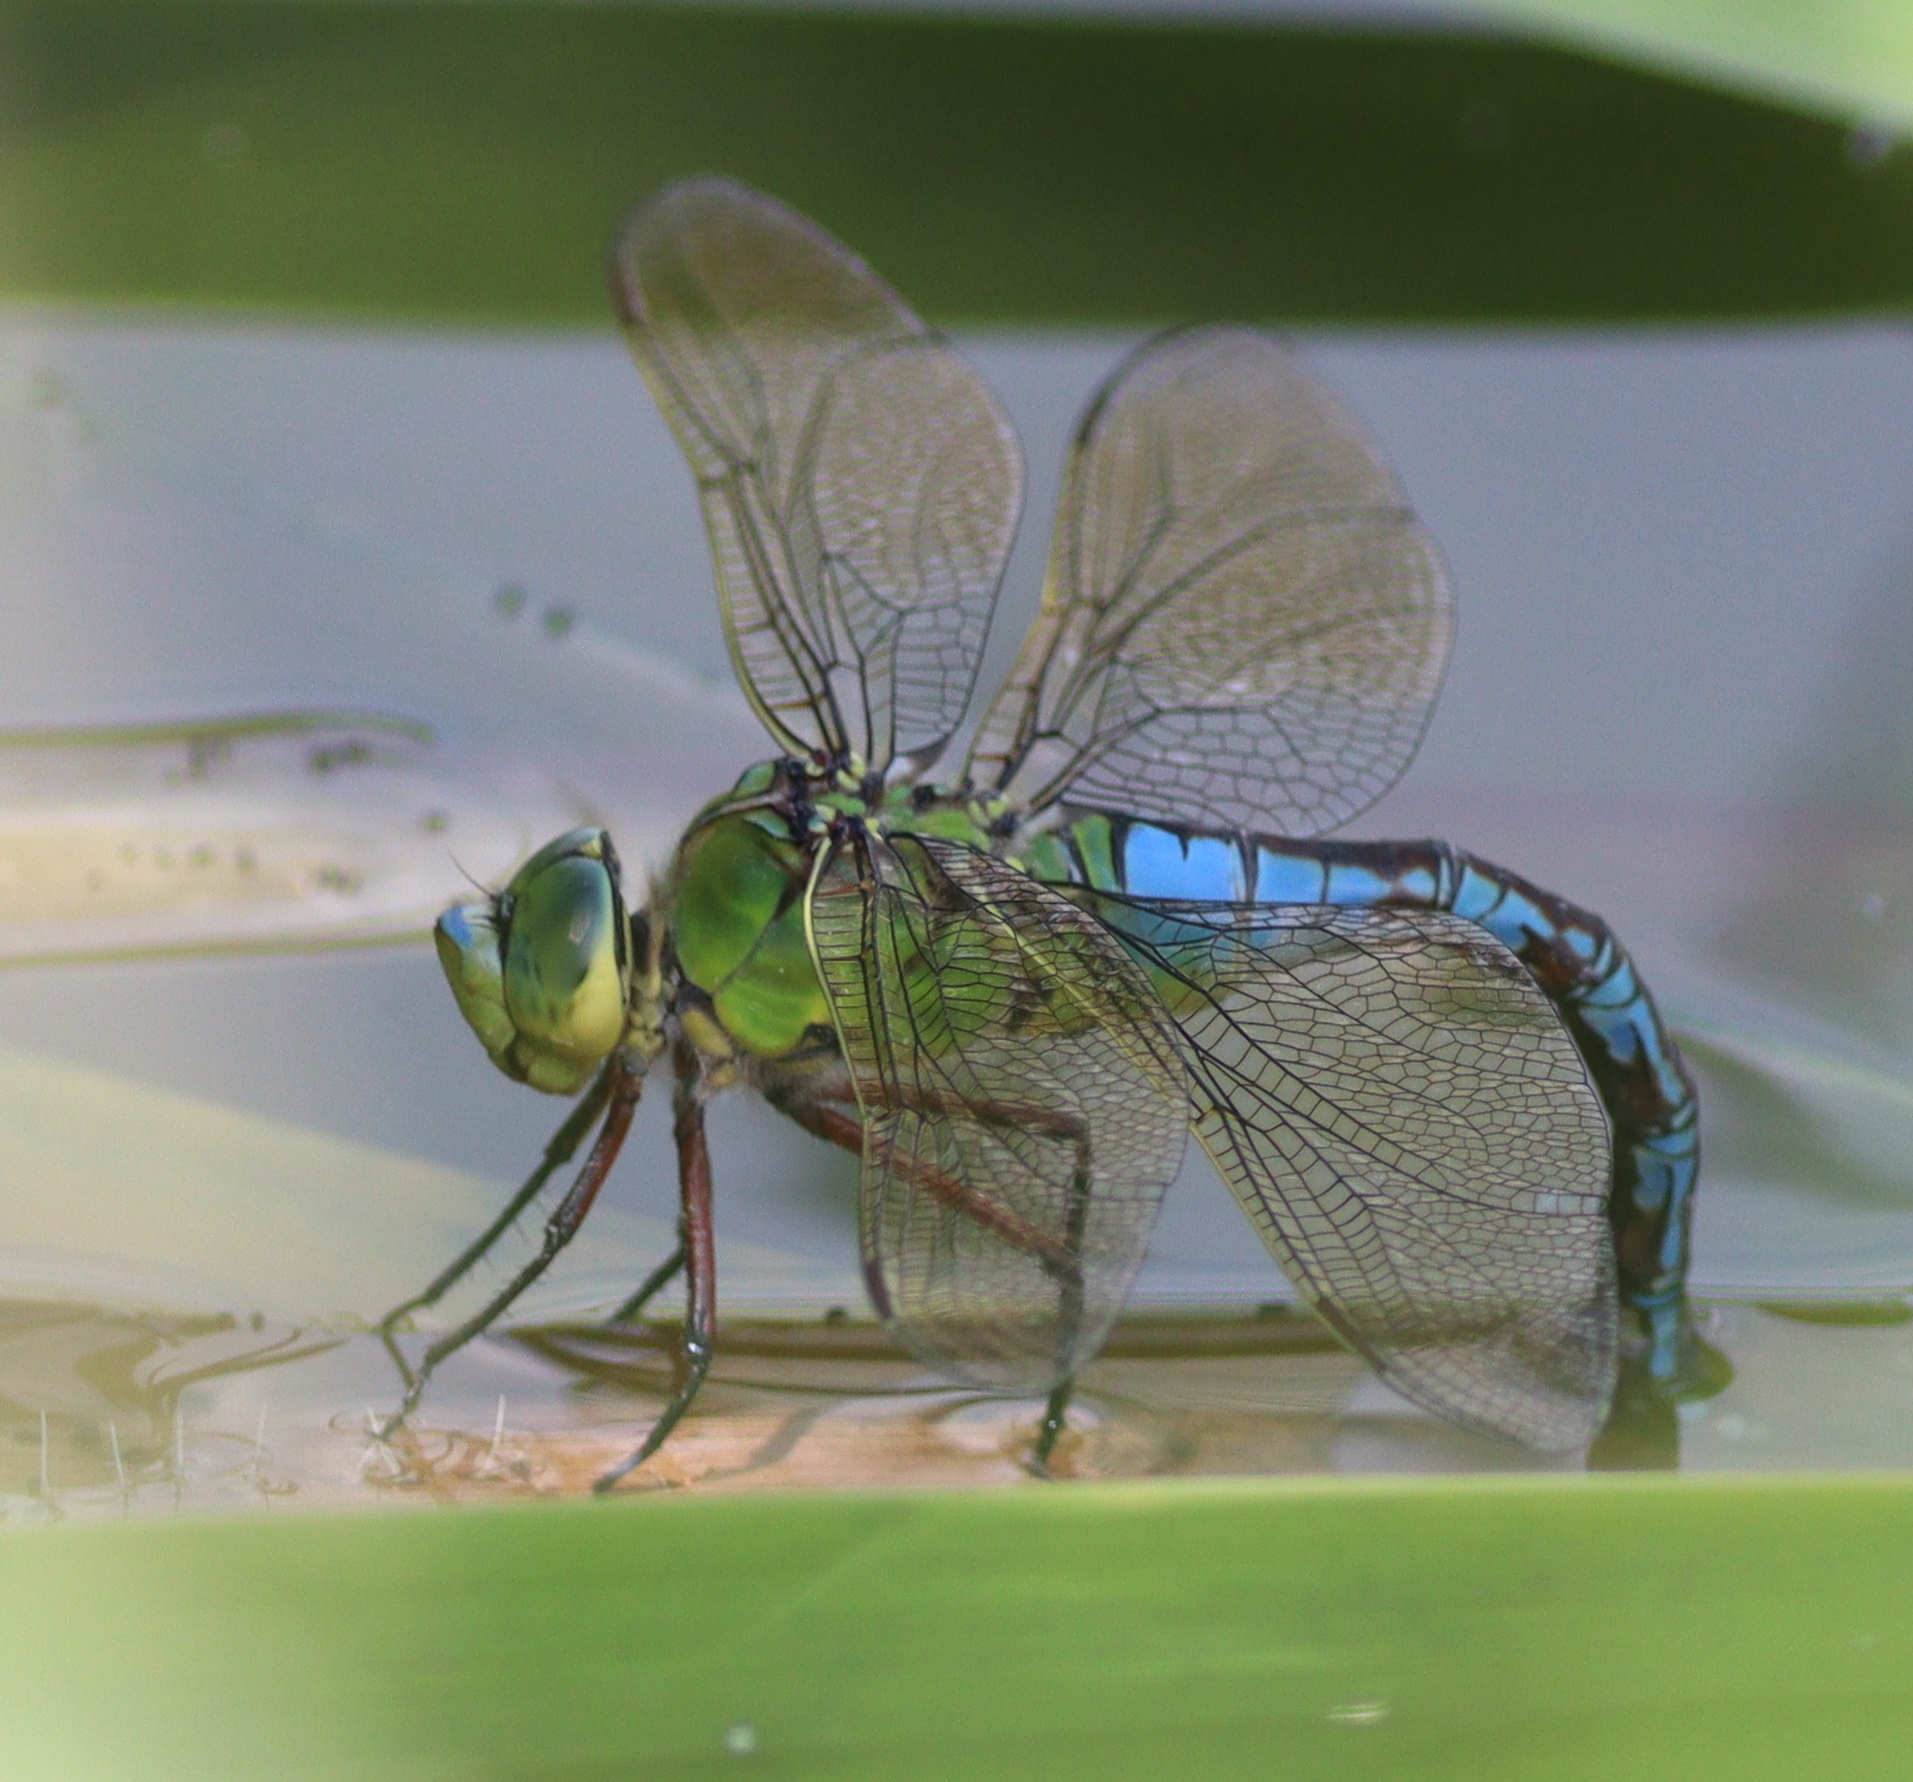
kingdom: Animalia
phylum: Arthropoda
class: Insecta
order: Odonata
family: Aeshnidae
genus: Anax
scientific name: Anax imperator
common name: Emperor dragonfly
